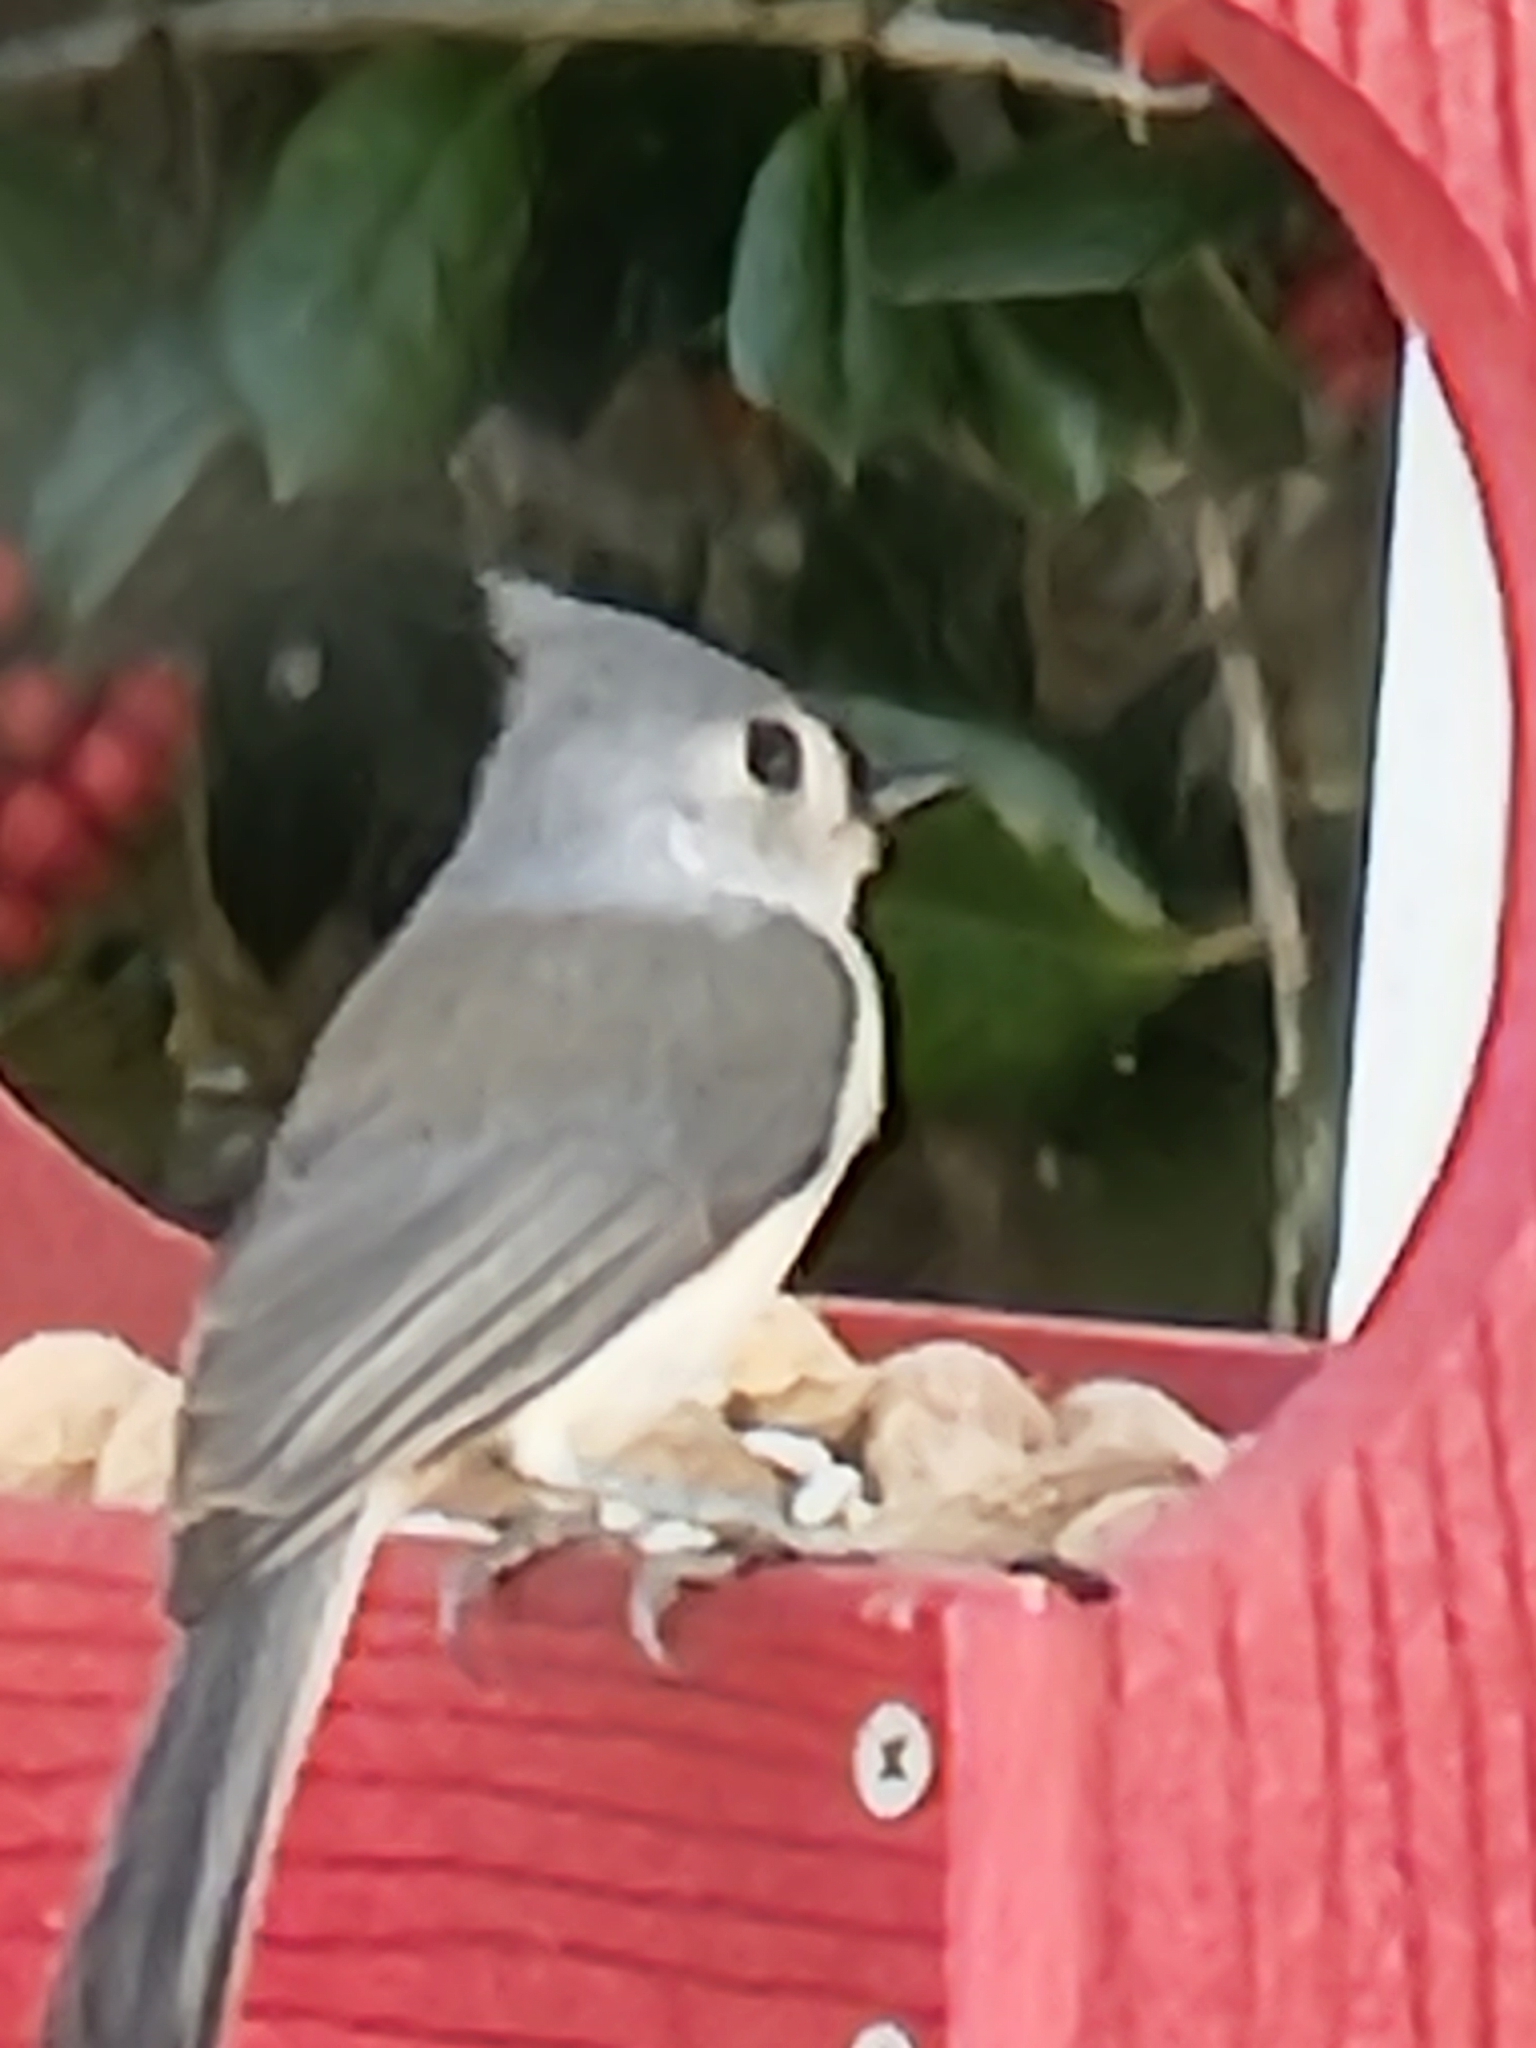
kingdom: Animalia
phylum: Chordata
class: Aves
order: Passeriformes
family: Paridae
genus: Baeolophus
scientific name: Baeolophus bicolor
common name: Tufted titmouse
